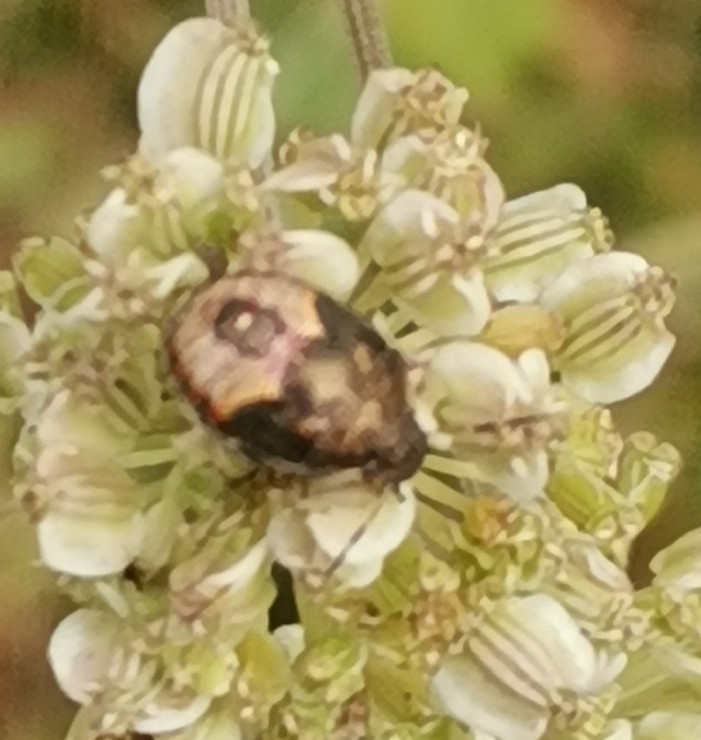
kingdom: Animalia
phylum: Arthropoda
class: Insecta
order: Hemiptera
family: Pentatomidae
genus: Holcostethus
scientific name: Holcostethus strictus
